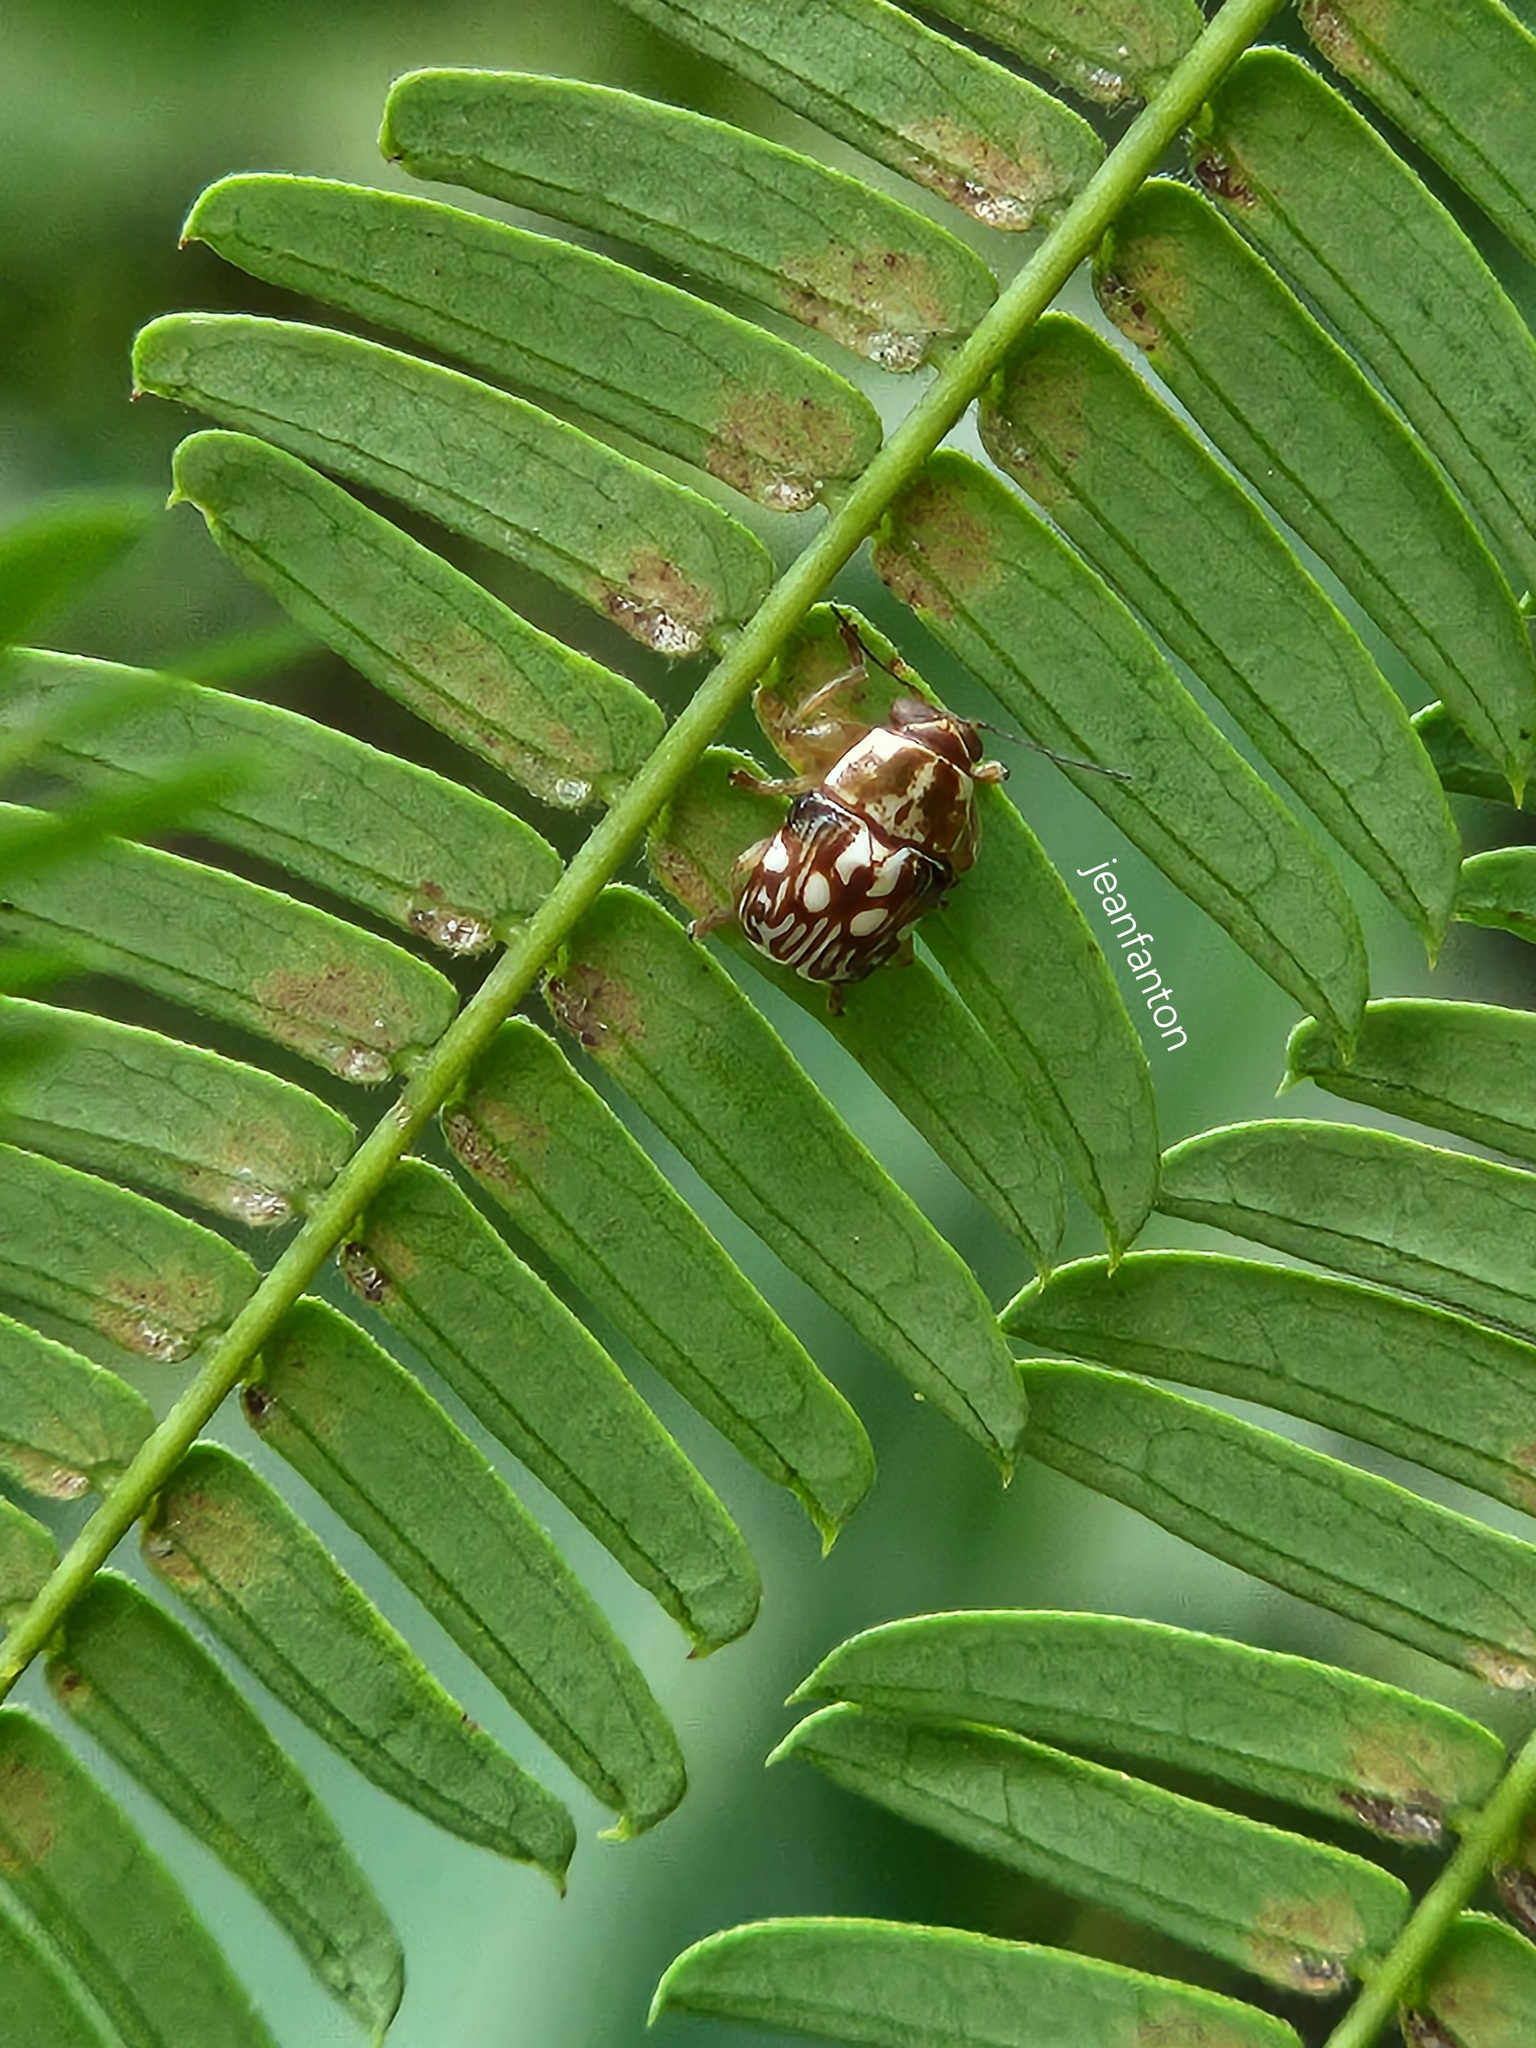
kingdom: Animalia
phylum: Arthropoda
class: Insecta
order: Coleoptera
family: Chrysomelidae
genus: Pachybrachis
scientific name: Pachybrachis
